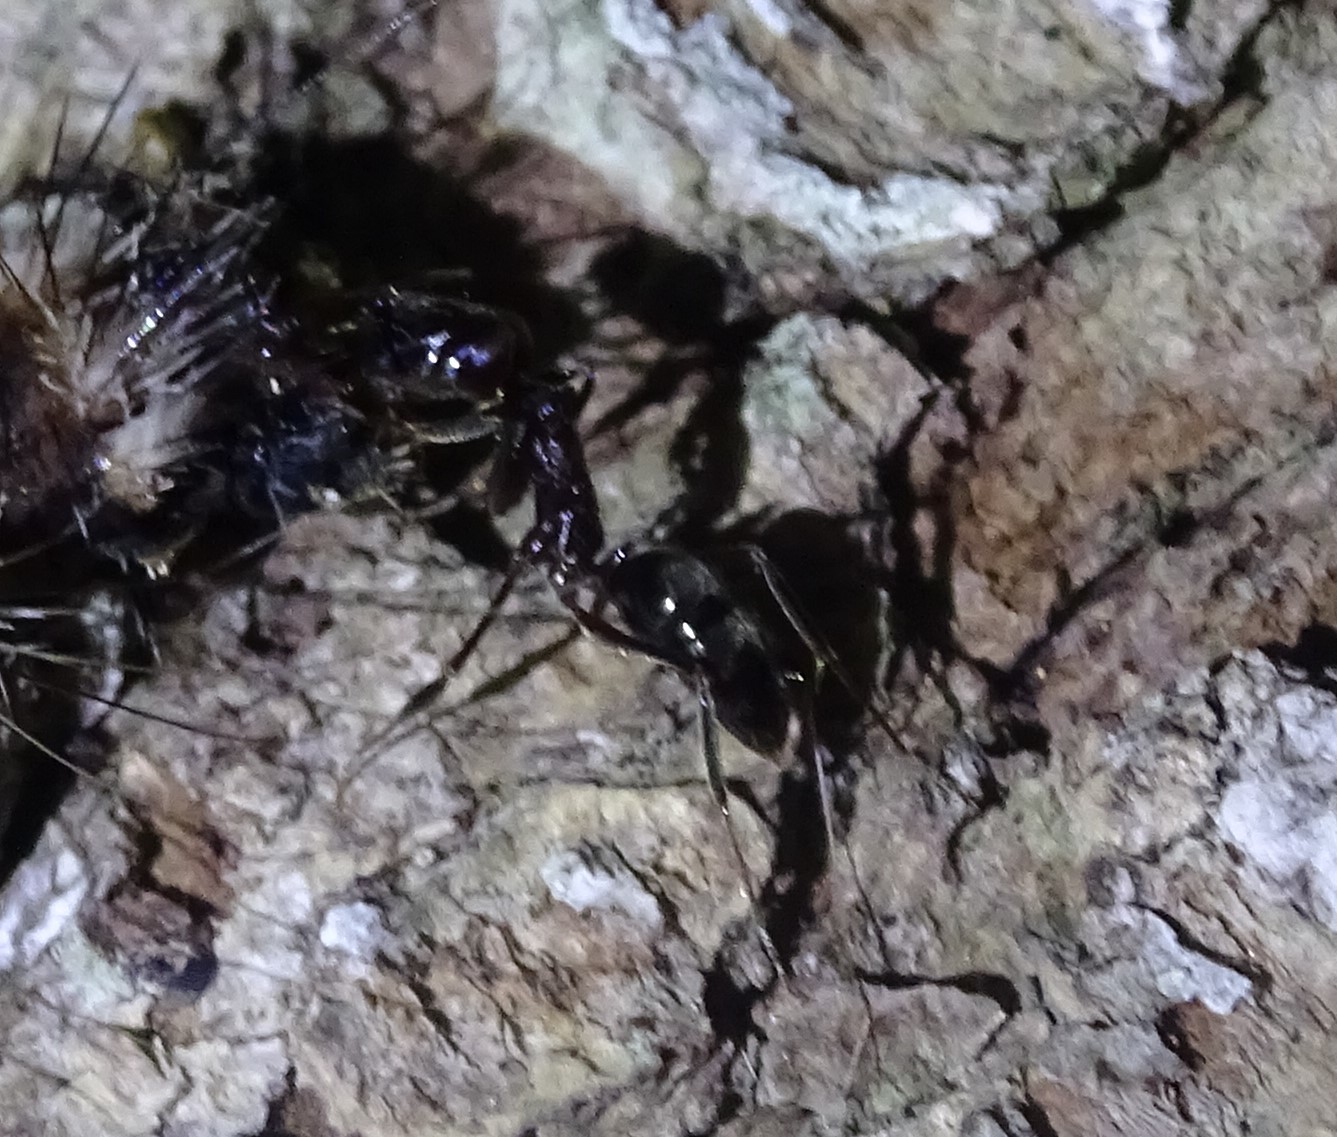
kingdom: Animalia
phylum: Arthropoda
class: Insecta
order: Hymenoptera
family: Formicidae
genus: Odontomachus
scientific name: Odontomachus brunneus
